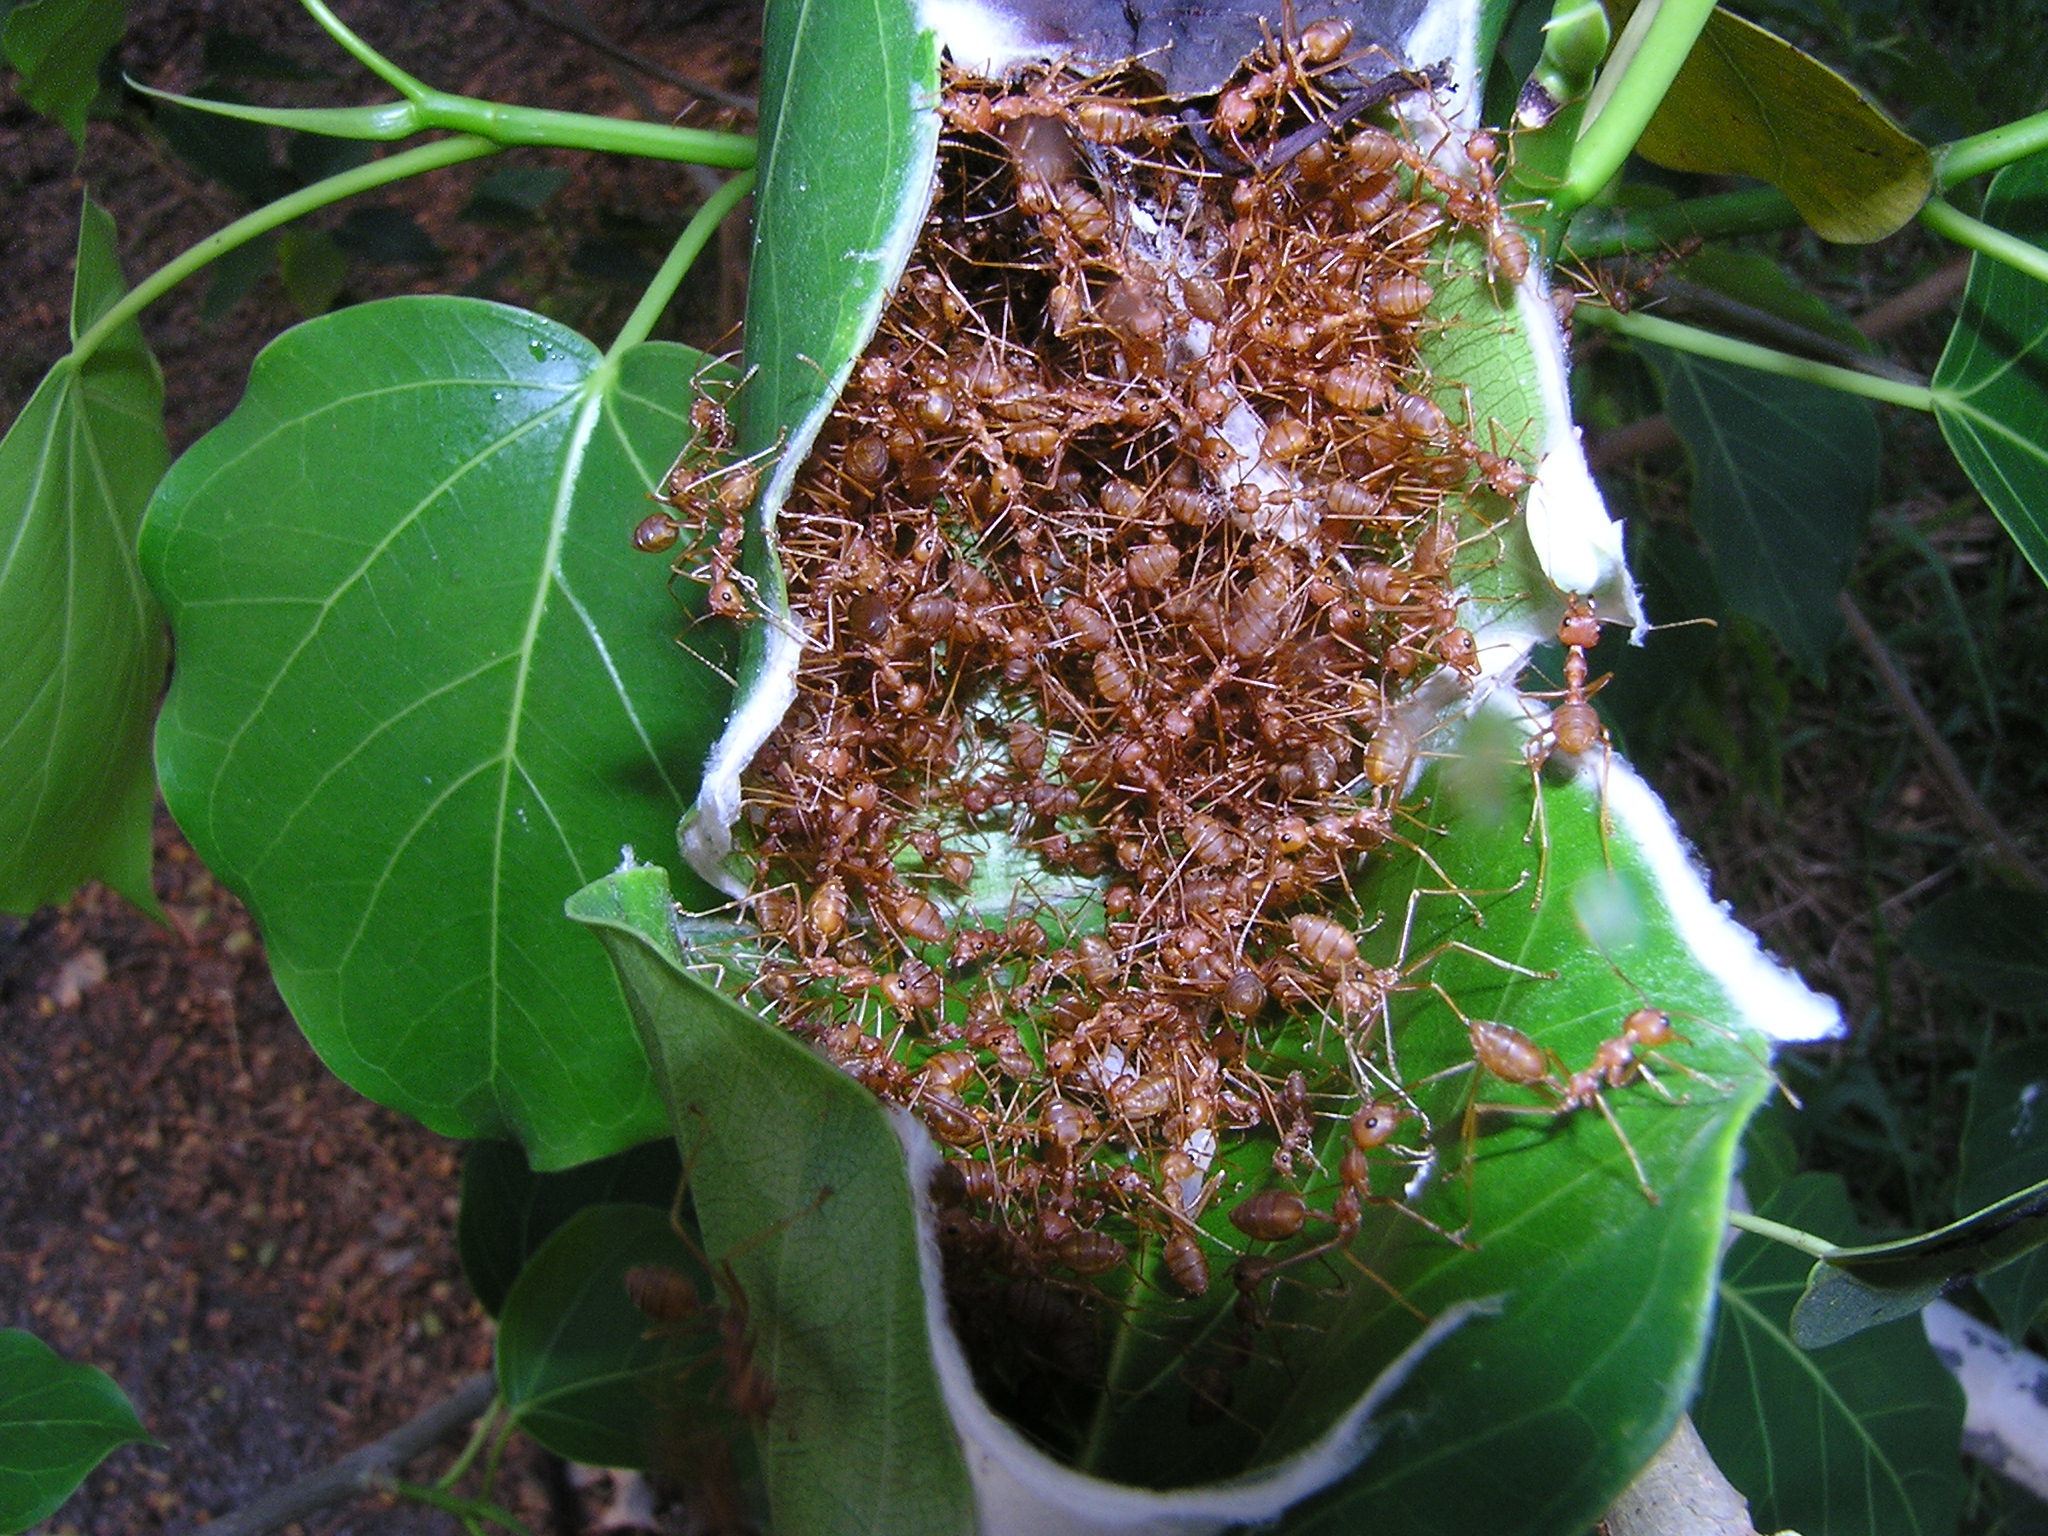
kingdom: Animalia
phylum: Arthropoda
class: Insecta
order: Hymenoptera
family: Formicidae
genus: Oecophylla
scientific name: Oecophylla smaragdina
